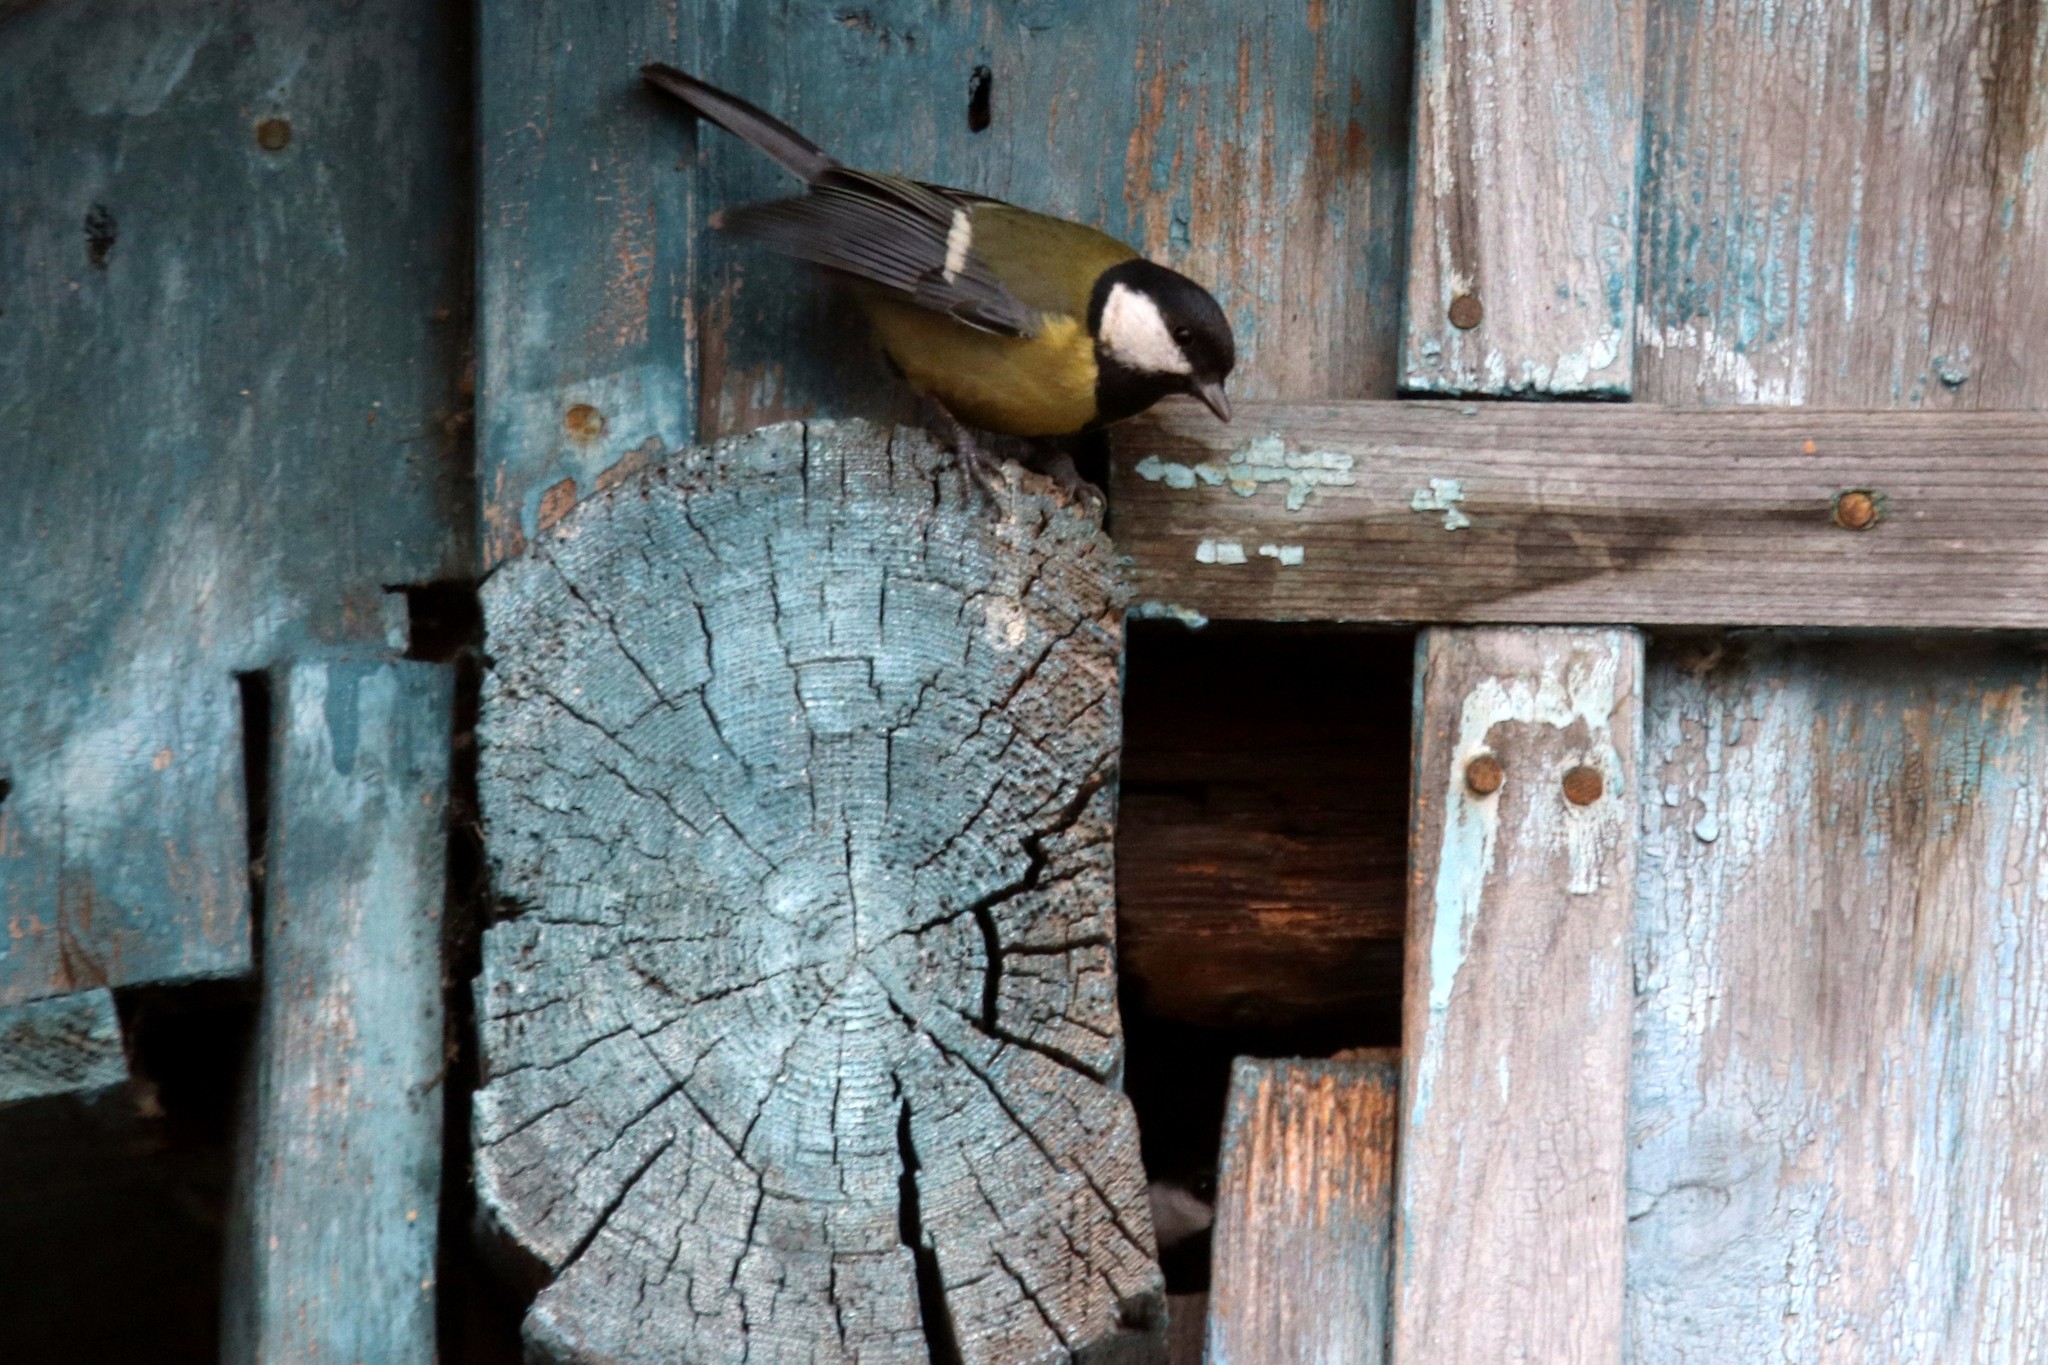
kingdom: Animalia
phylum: Chordata
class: Aves
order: Passeriformes
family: Paridae
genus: Parus
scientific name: Parus major
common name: Great tit
